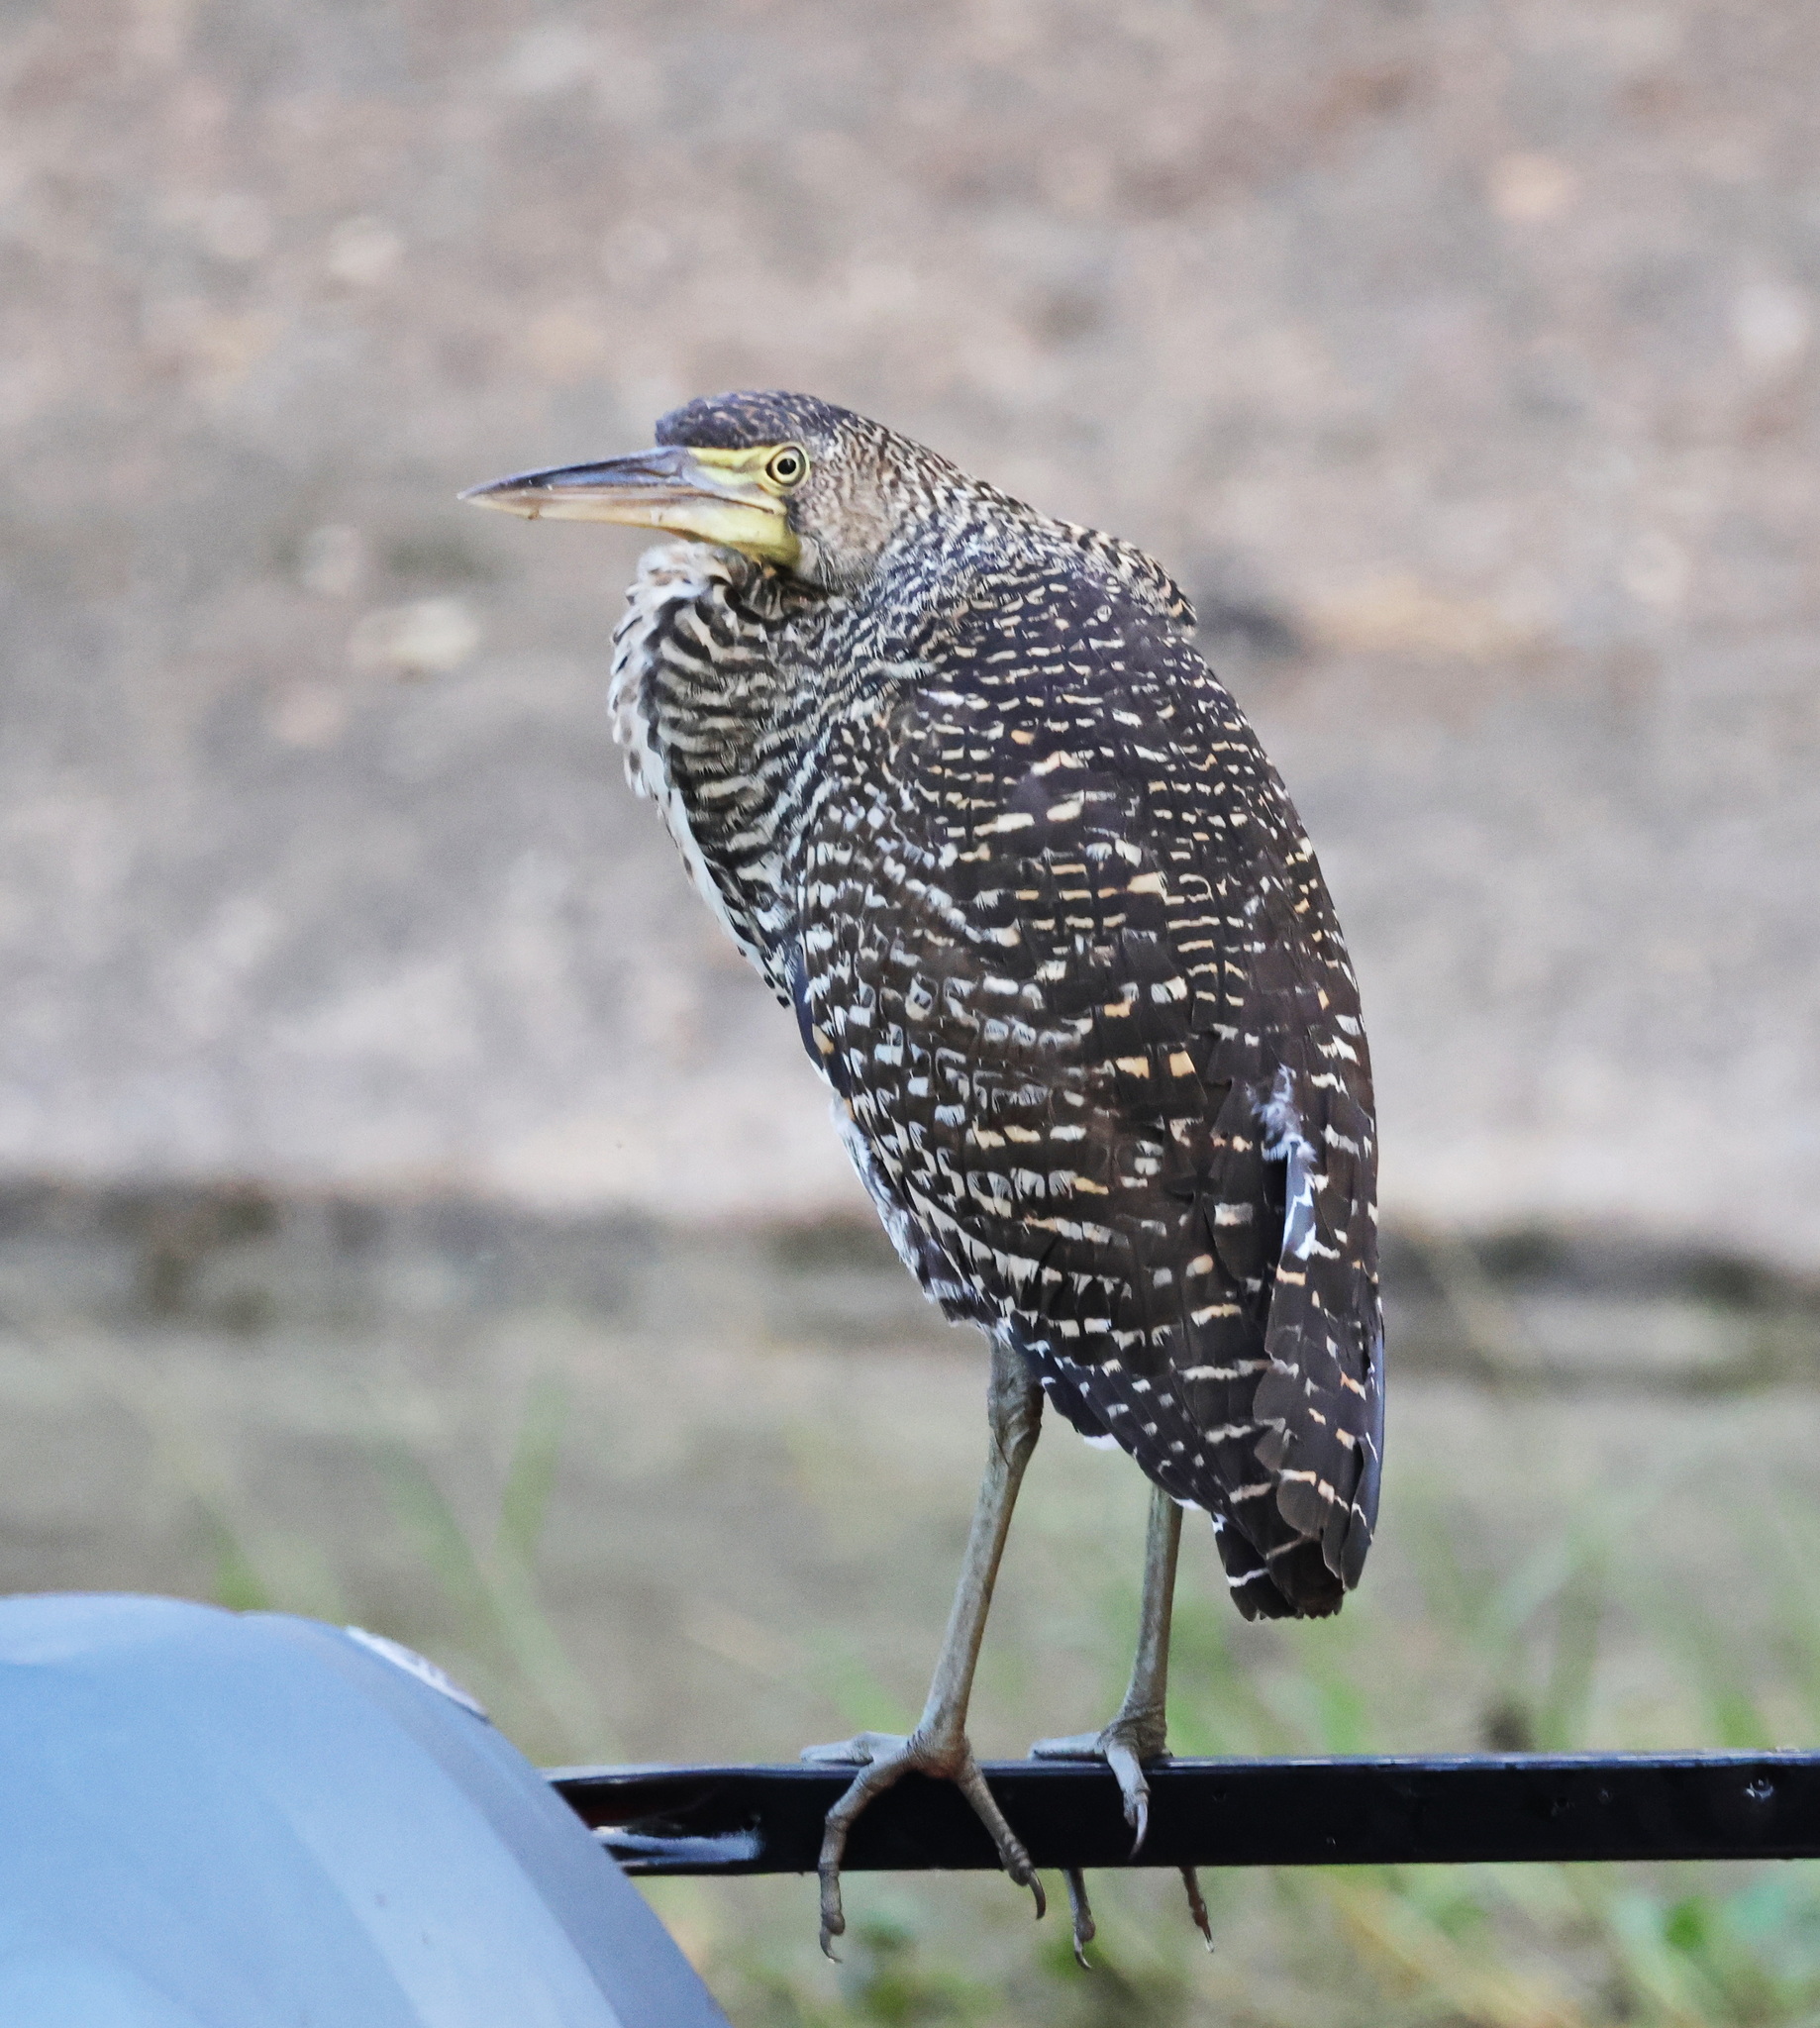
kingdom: Animalia
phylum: Chordata
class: Aves
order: Pelecaniformes
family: Ardeidae
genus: Tigrisoma
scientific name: Tigrisoma mexicanum
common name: Bare-throated tiger-heron
